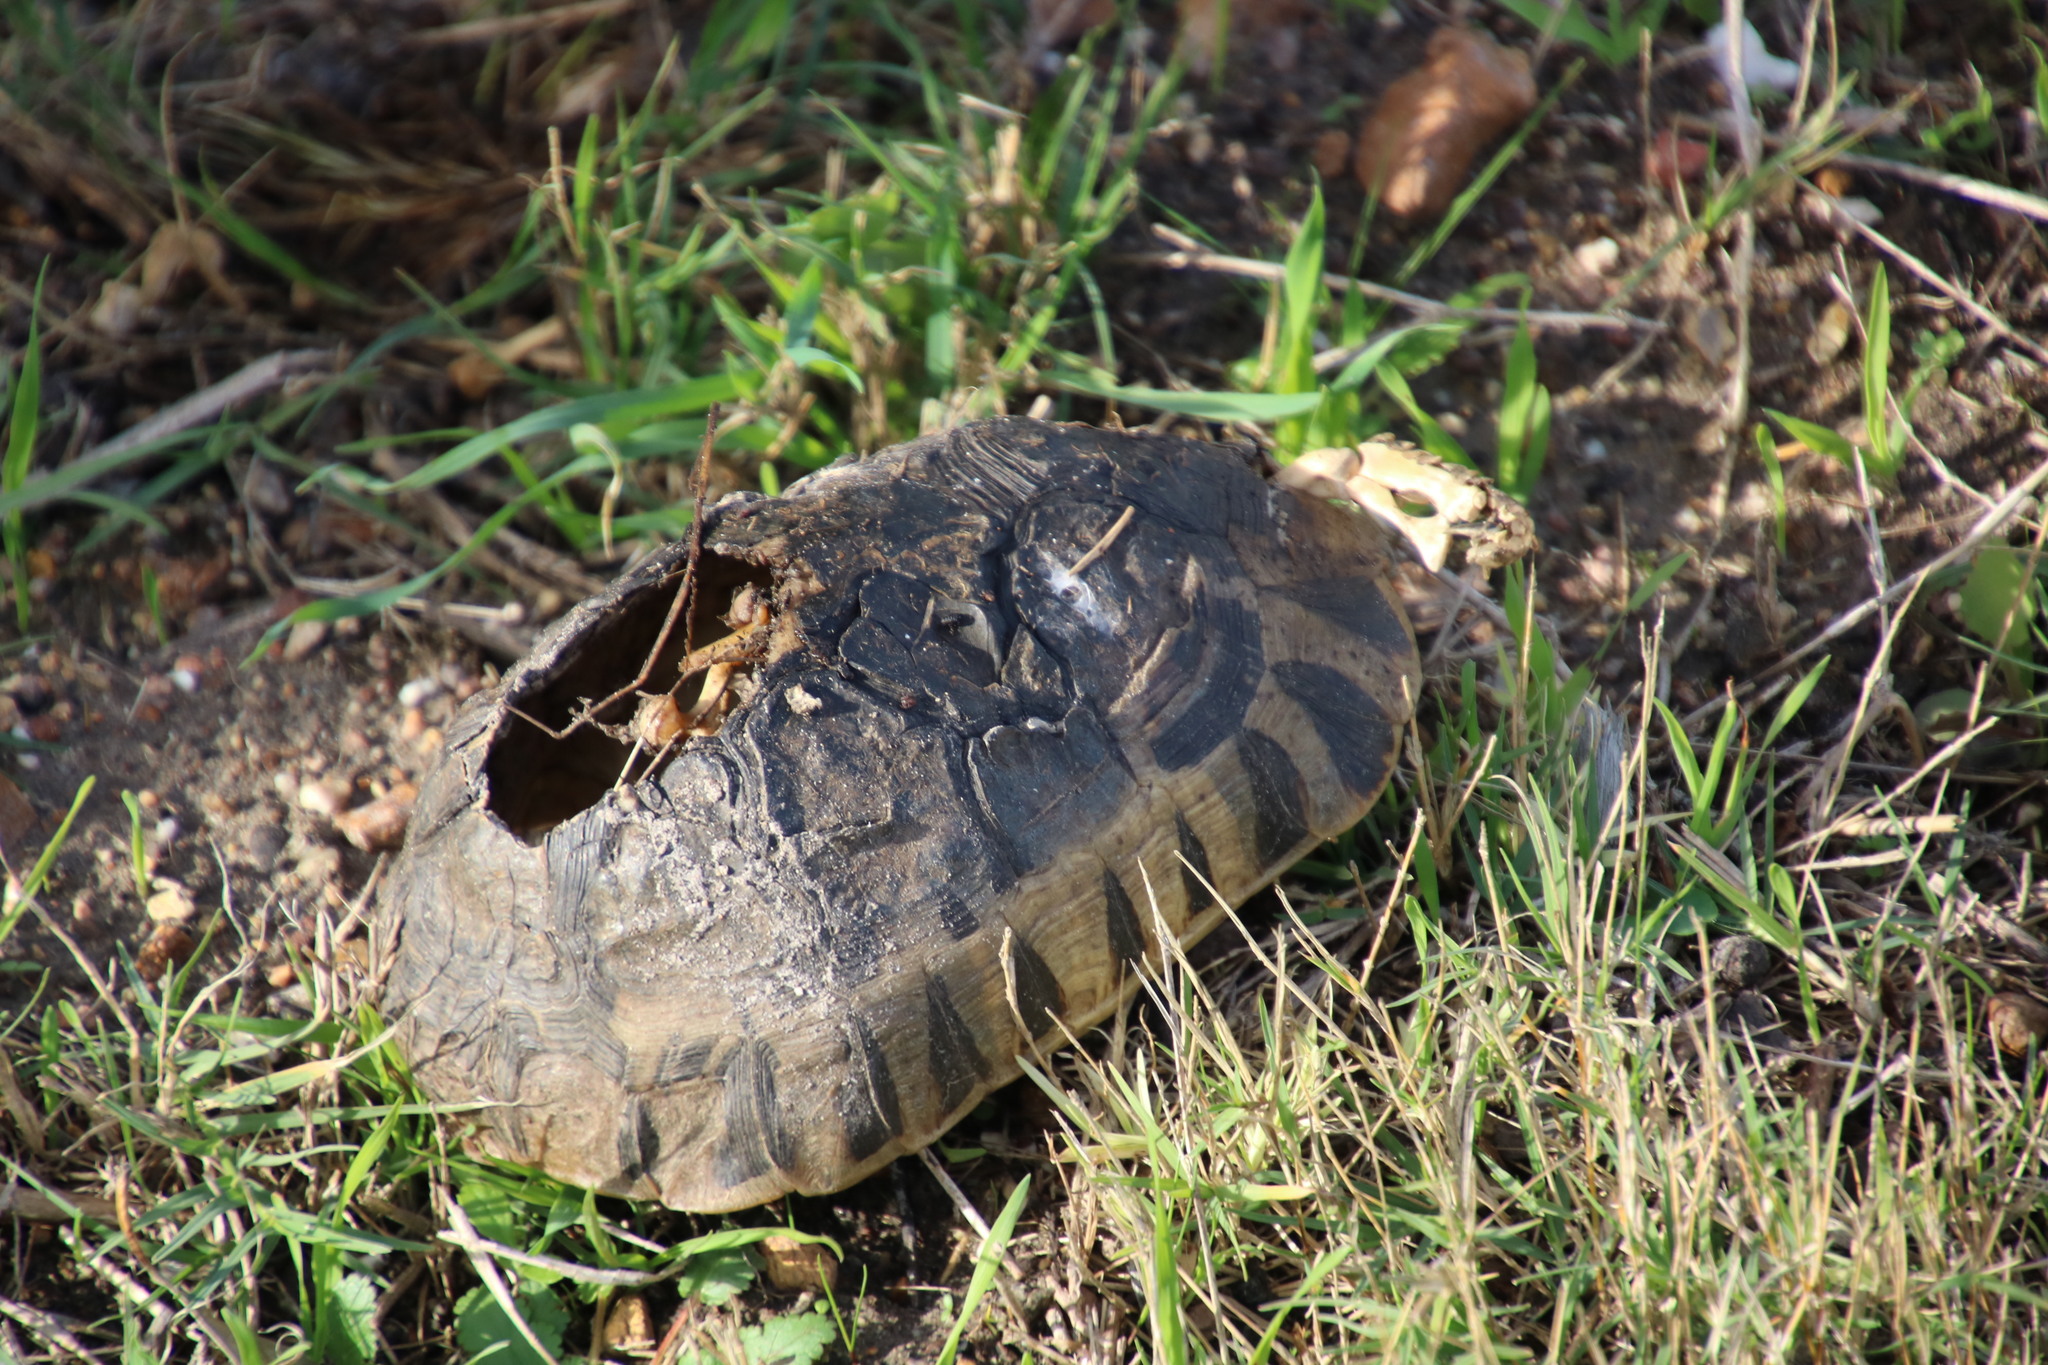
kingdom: Animalia
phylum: Chordata
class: Testudines
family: Testudinidae
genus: Chersina
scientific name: Chersina angulata
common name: South african bowsprit tortoise
